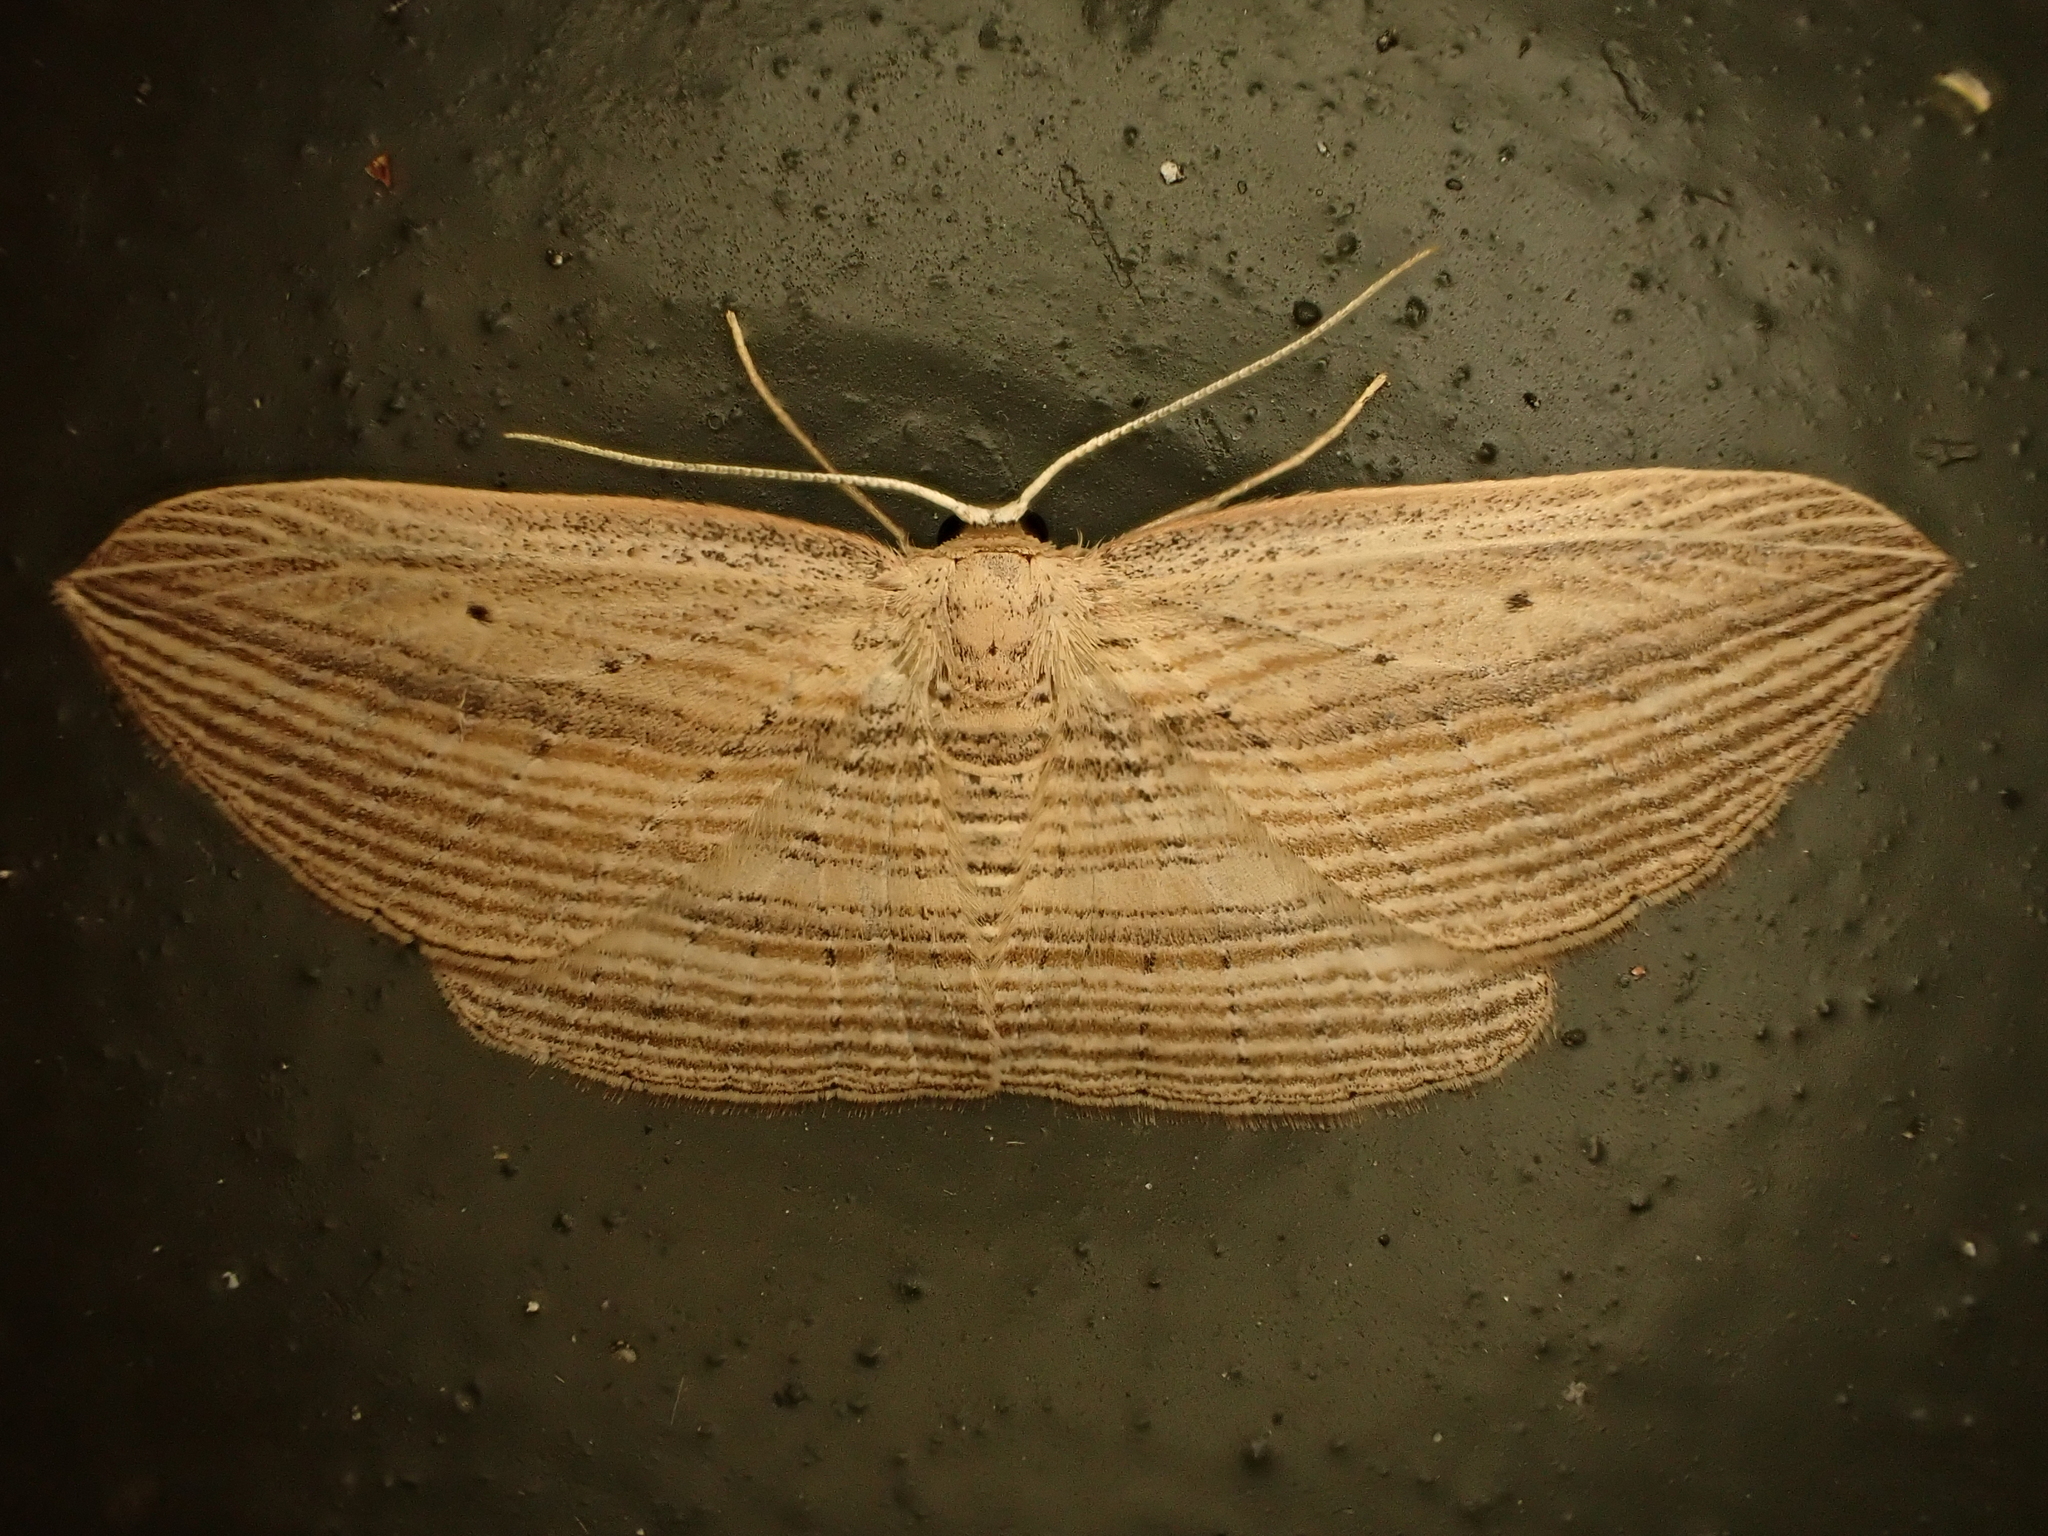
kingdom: Animalia
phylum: Arthropoda
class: Insecta
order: Lepidoptera
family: Geometridae
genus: Epiphryne
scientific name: Epiphryne verriculata
